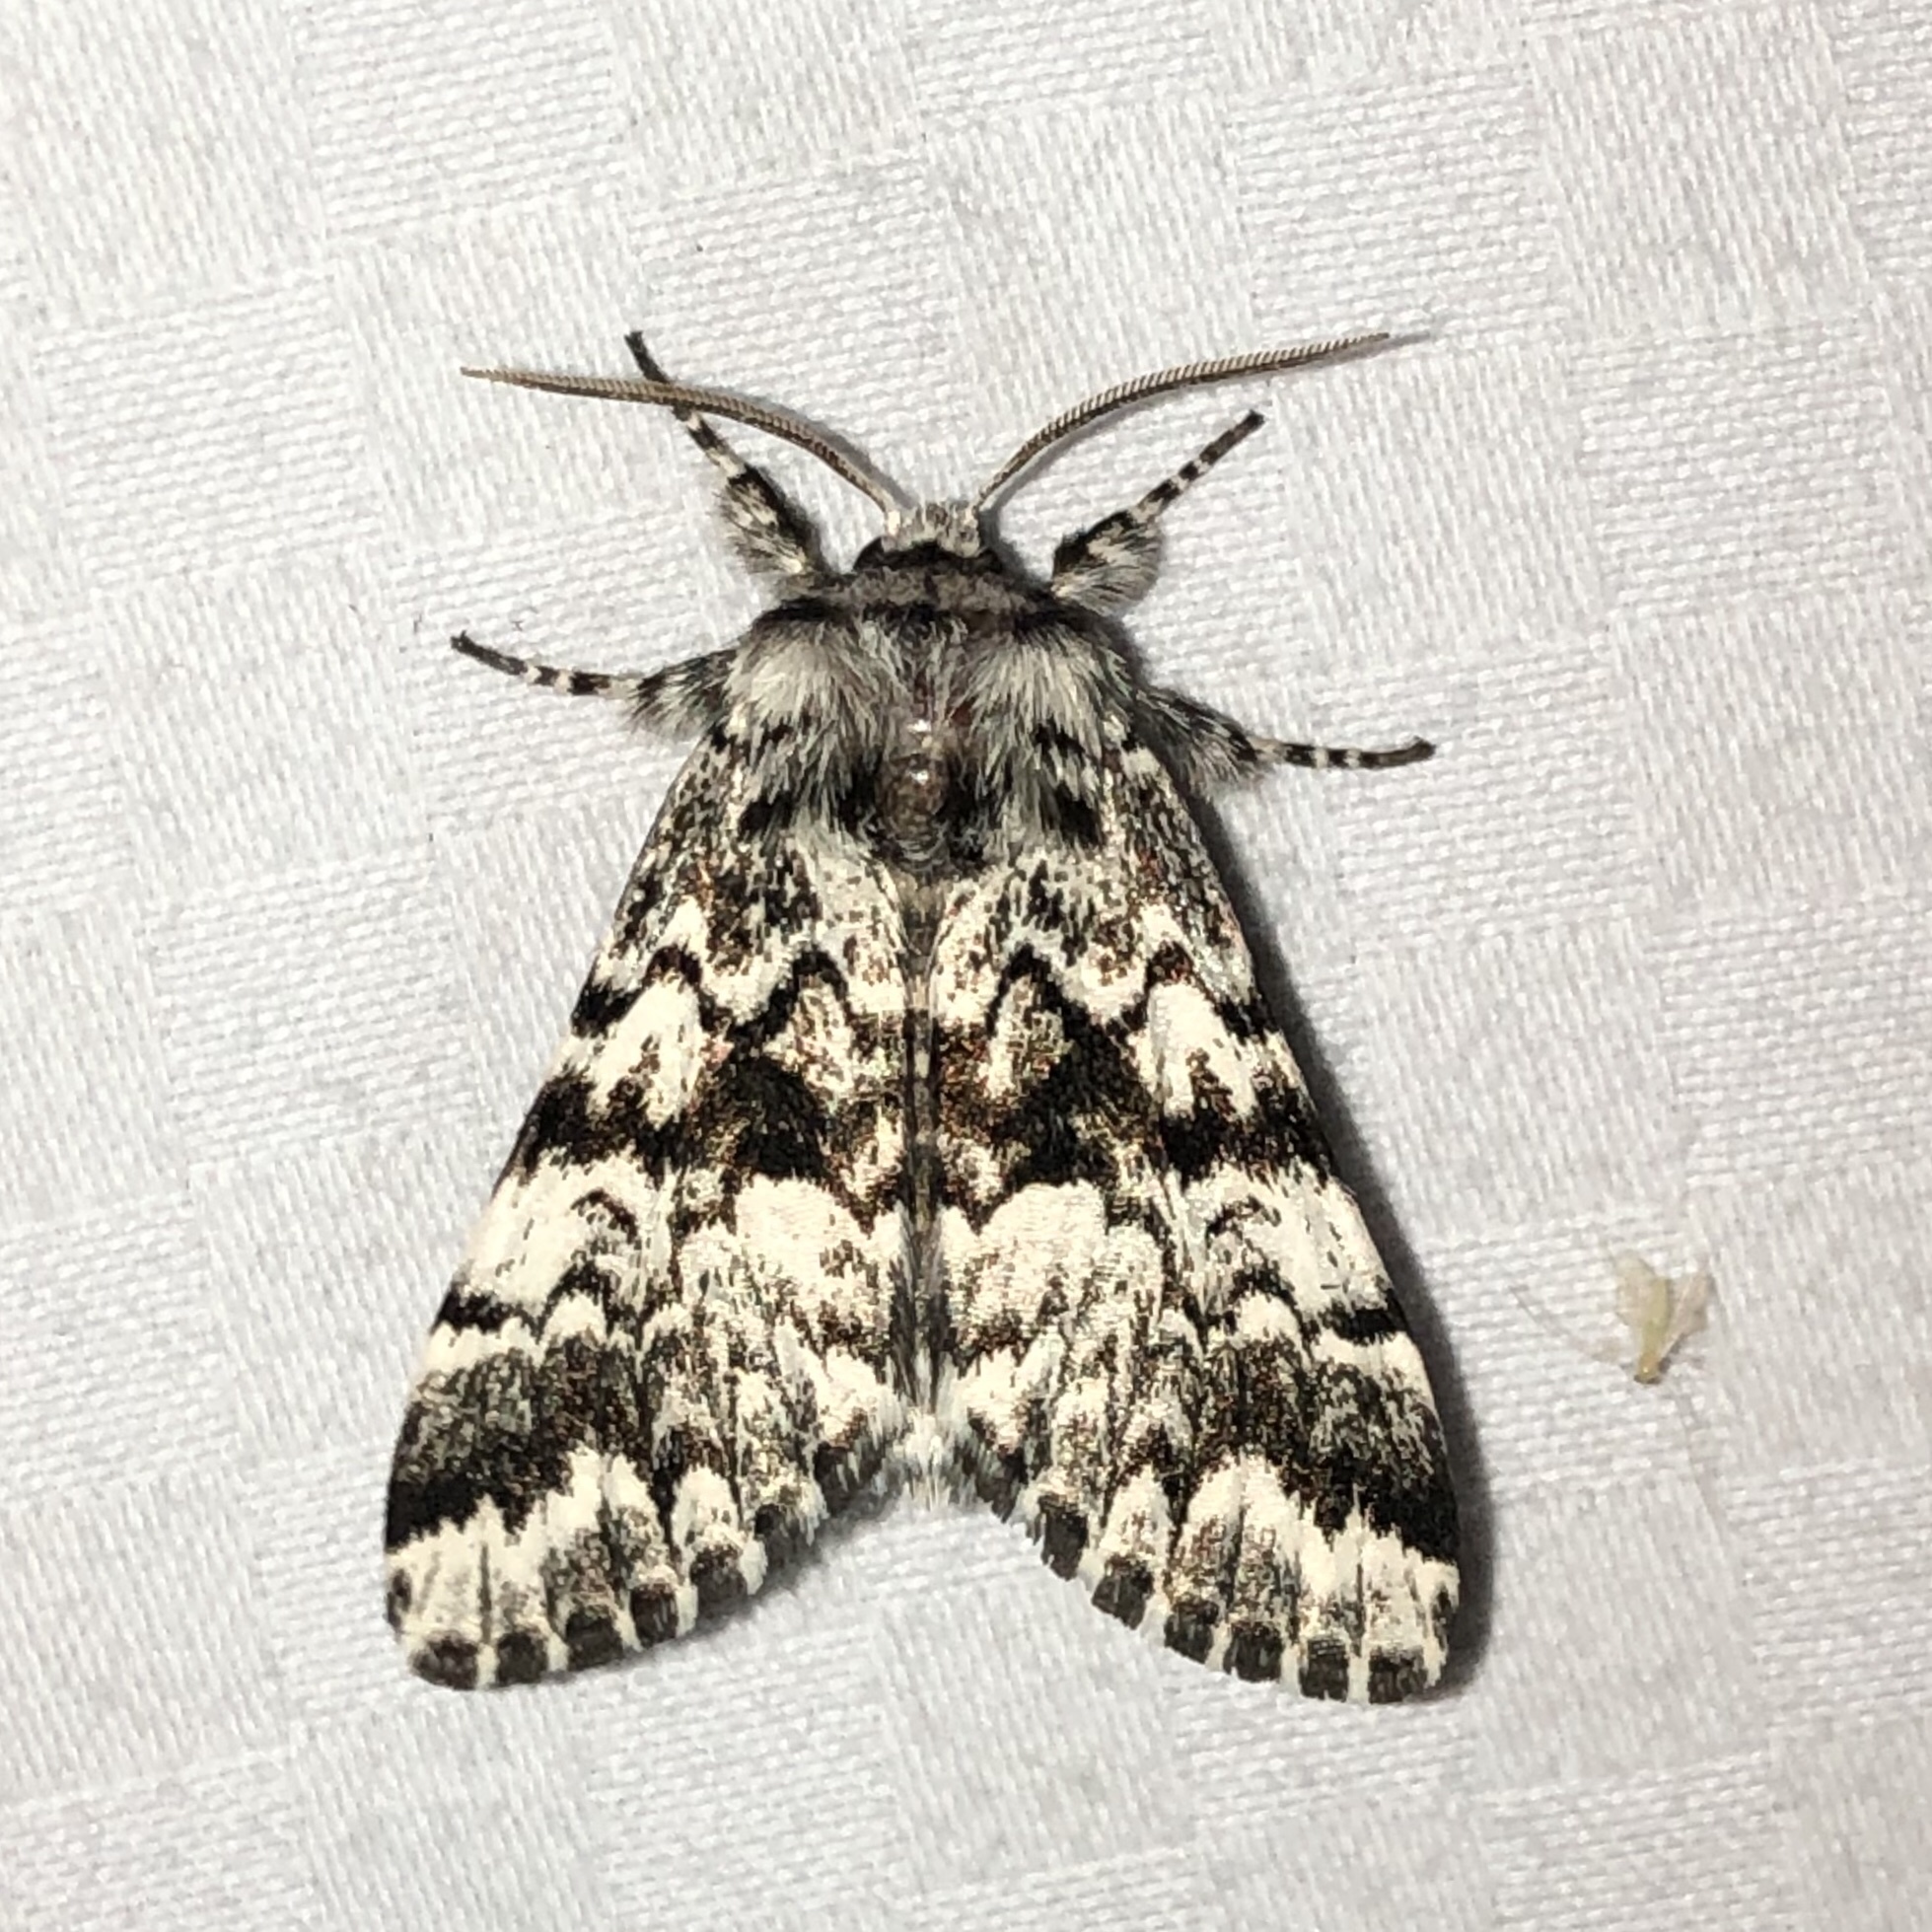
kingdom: Animalia
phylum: Arthropoda
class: Insecta
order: Lepidoptera
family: Noctuidae
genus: Panthea
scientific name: Panthea acronyctoides
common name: Black zigzag moth
